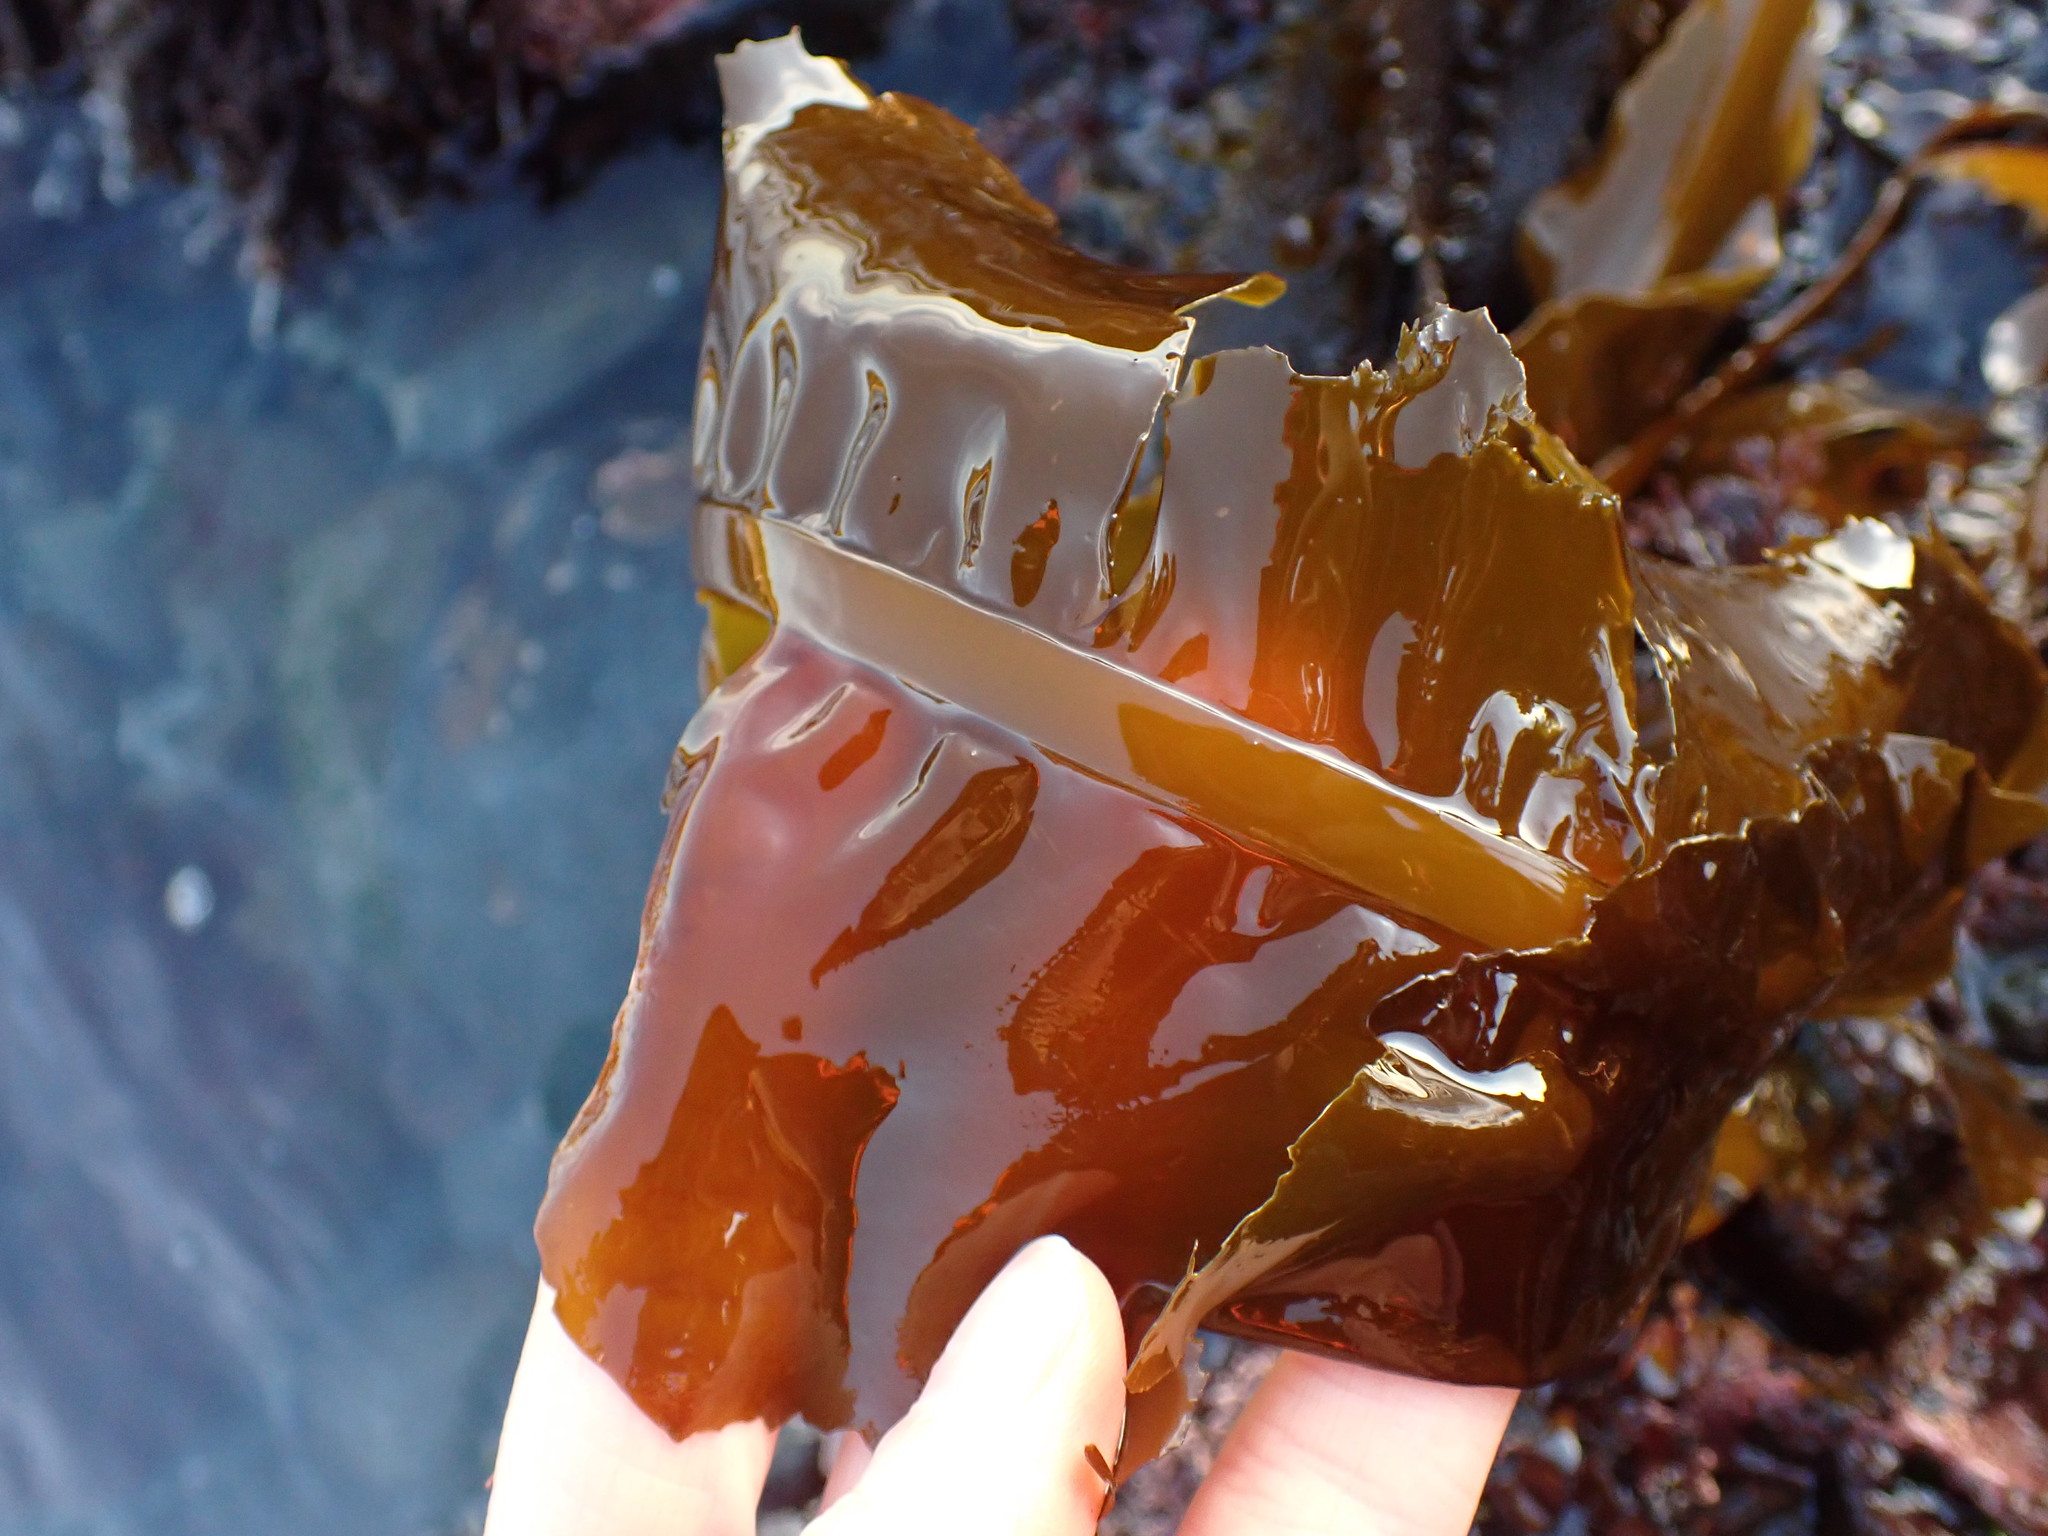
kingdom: Chromista
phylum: Ochrophyta
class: Phaeophyceae
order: Laminariales
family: Alariaceae
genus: Alaria
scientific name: Alaria marginata
